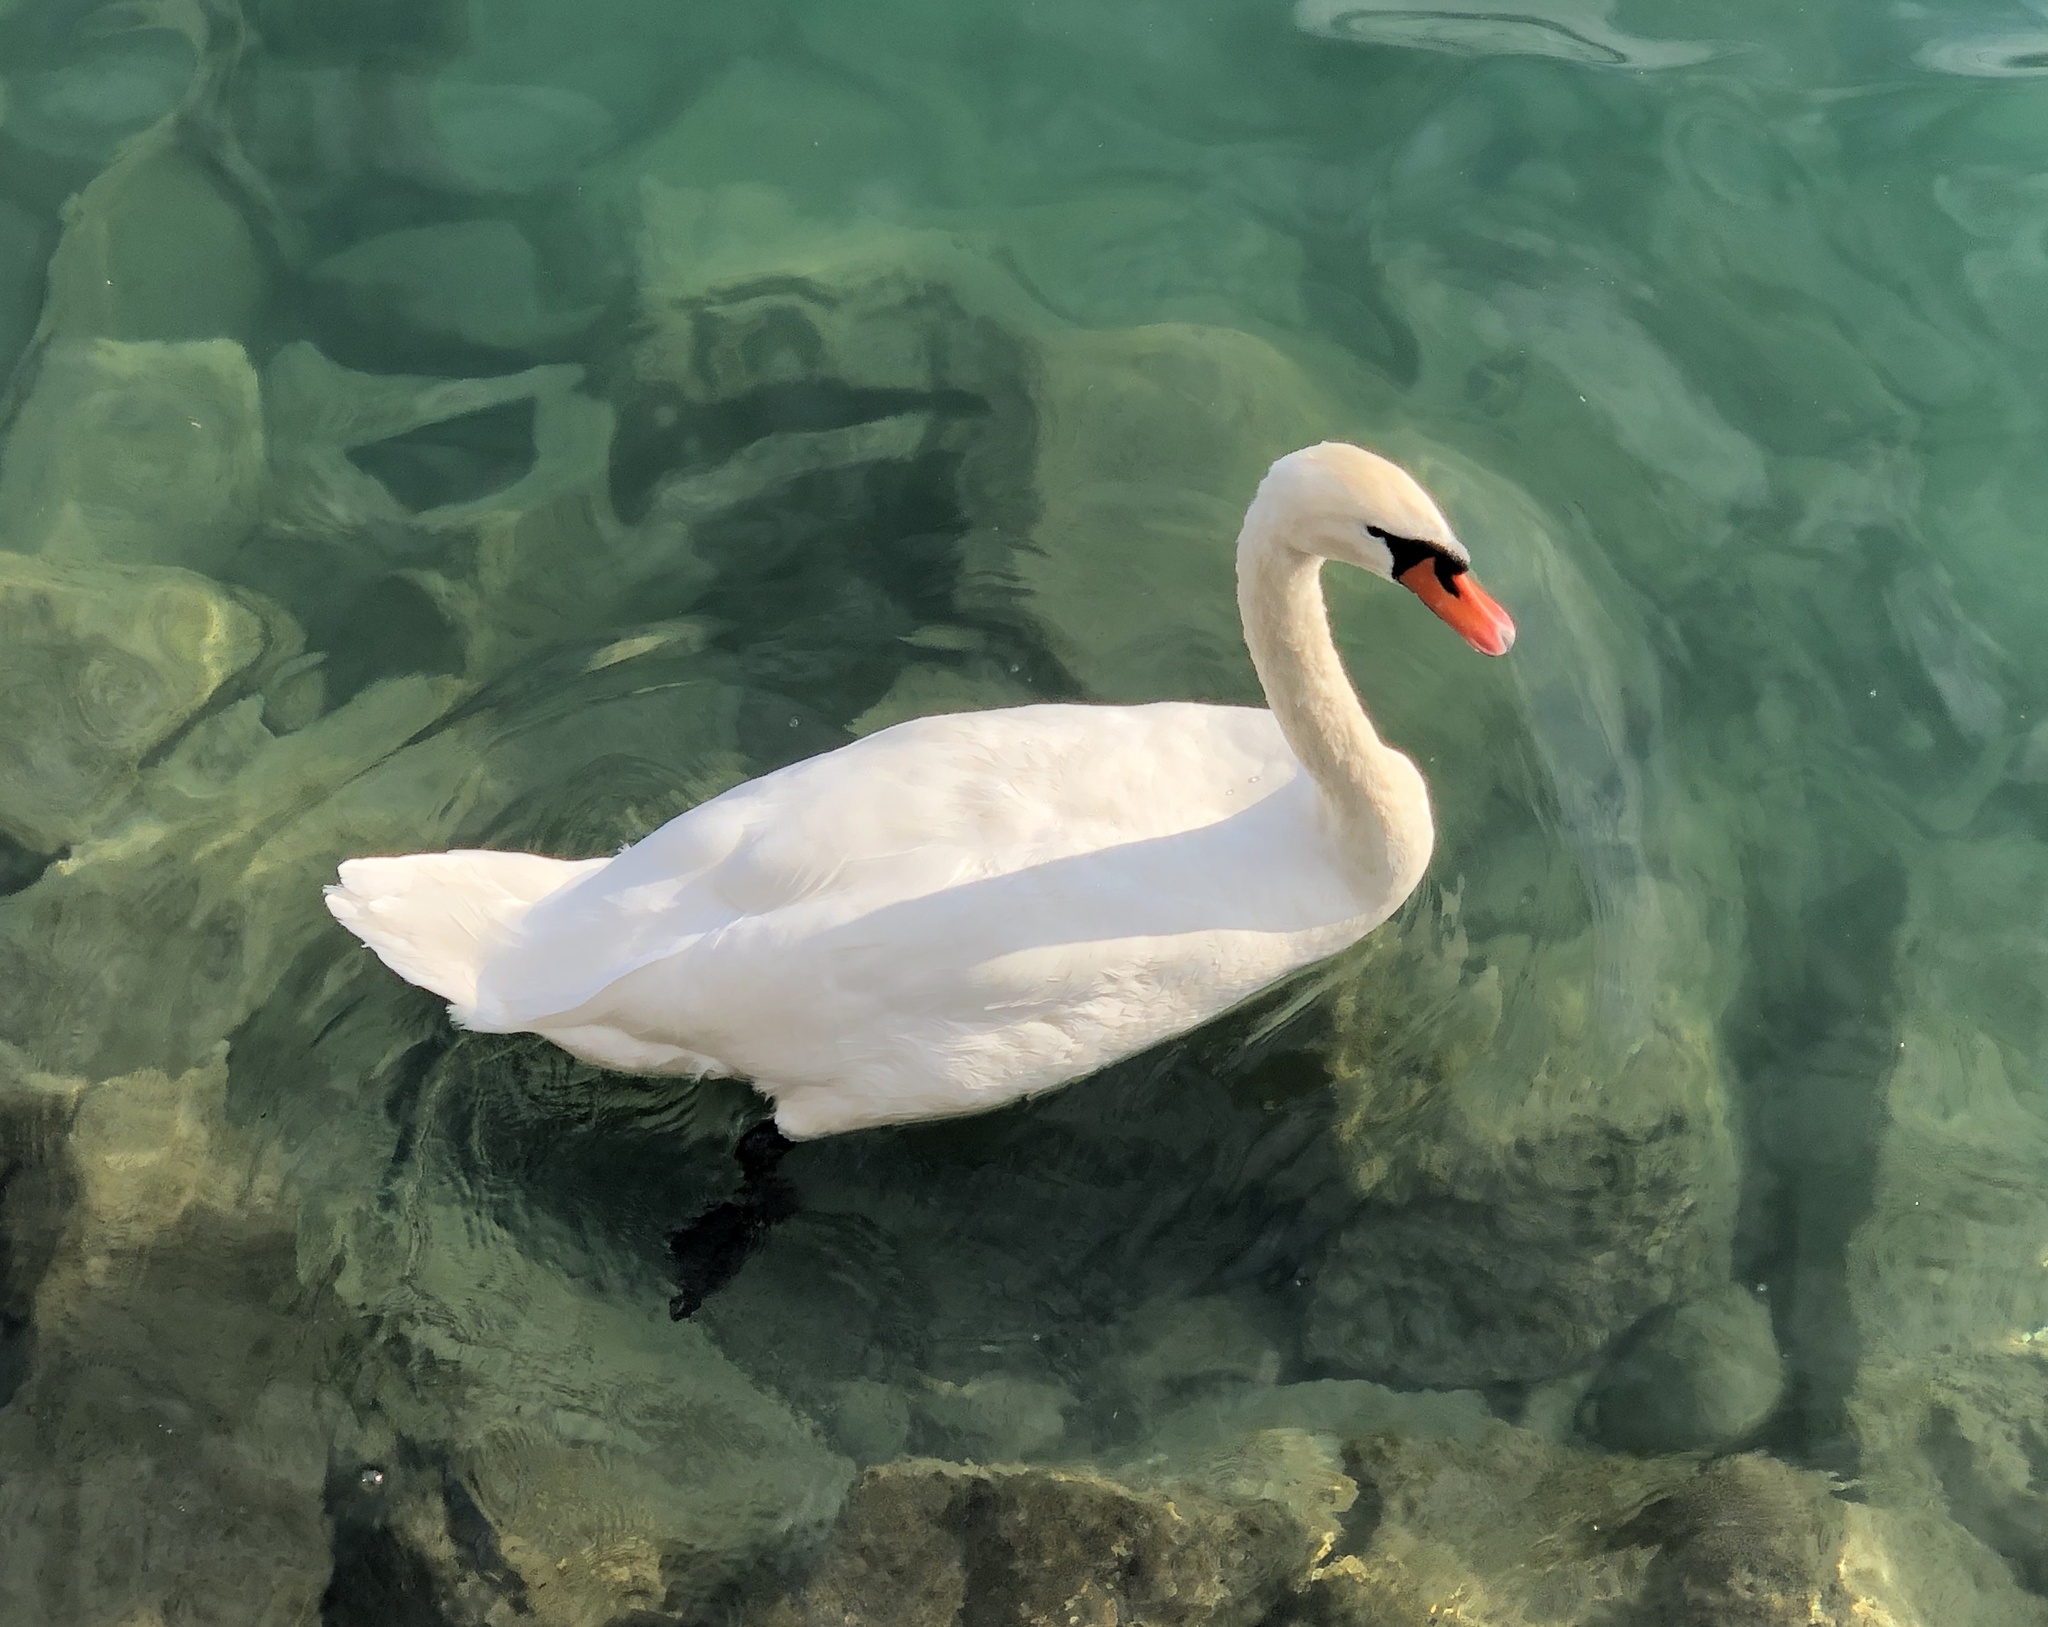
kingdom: Animalia
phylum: Chordata
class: Aves
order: Anseriformes
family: Anatidae
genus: Cygnus
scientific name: Cygnus olor
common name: Mute swan
